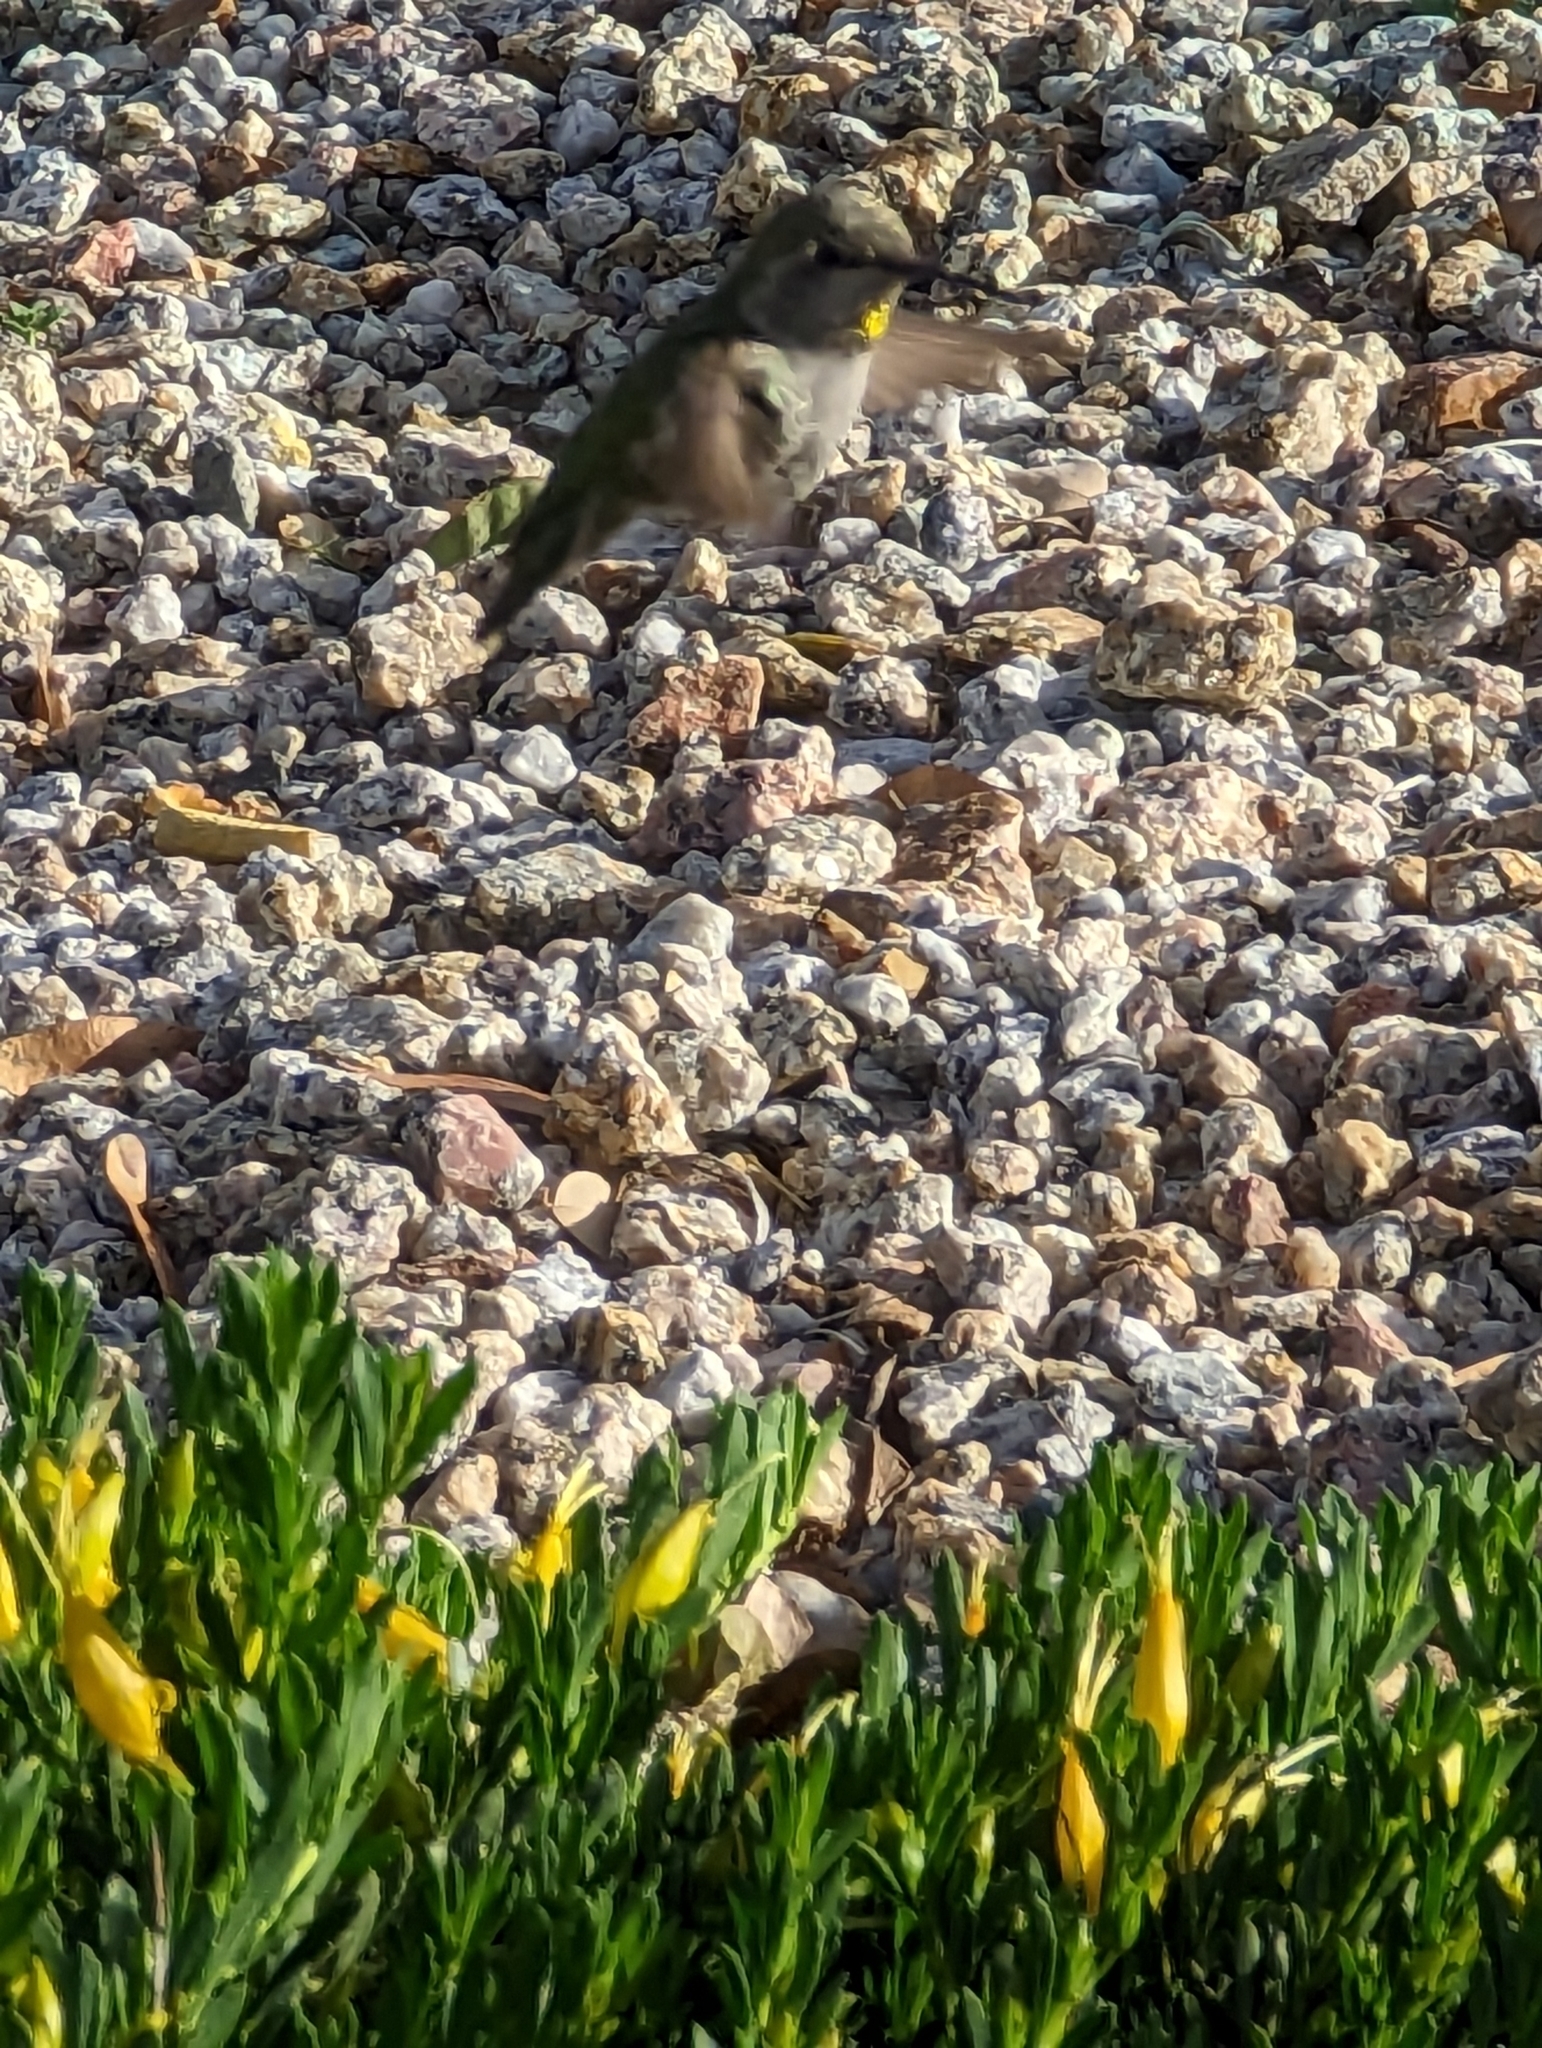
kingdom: Animalia
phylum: Chordata
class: Aves
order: Apodiformes
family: Trochilidae
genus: Calypte
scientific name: Calypte anna
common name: Anna's hummingbird
